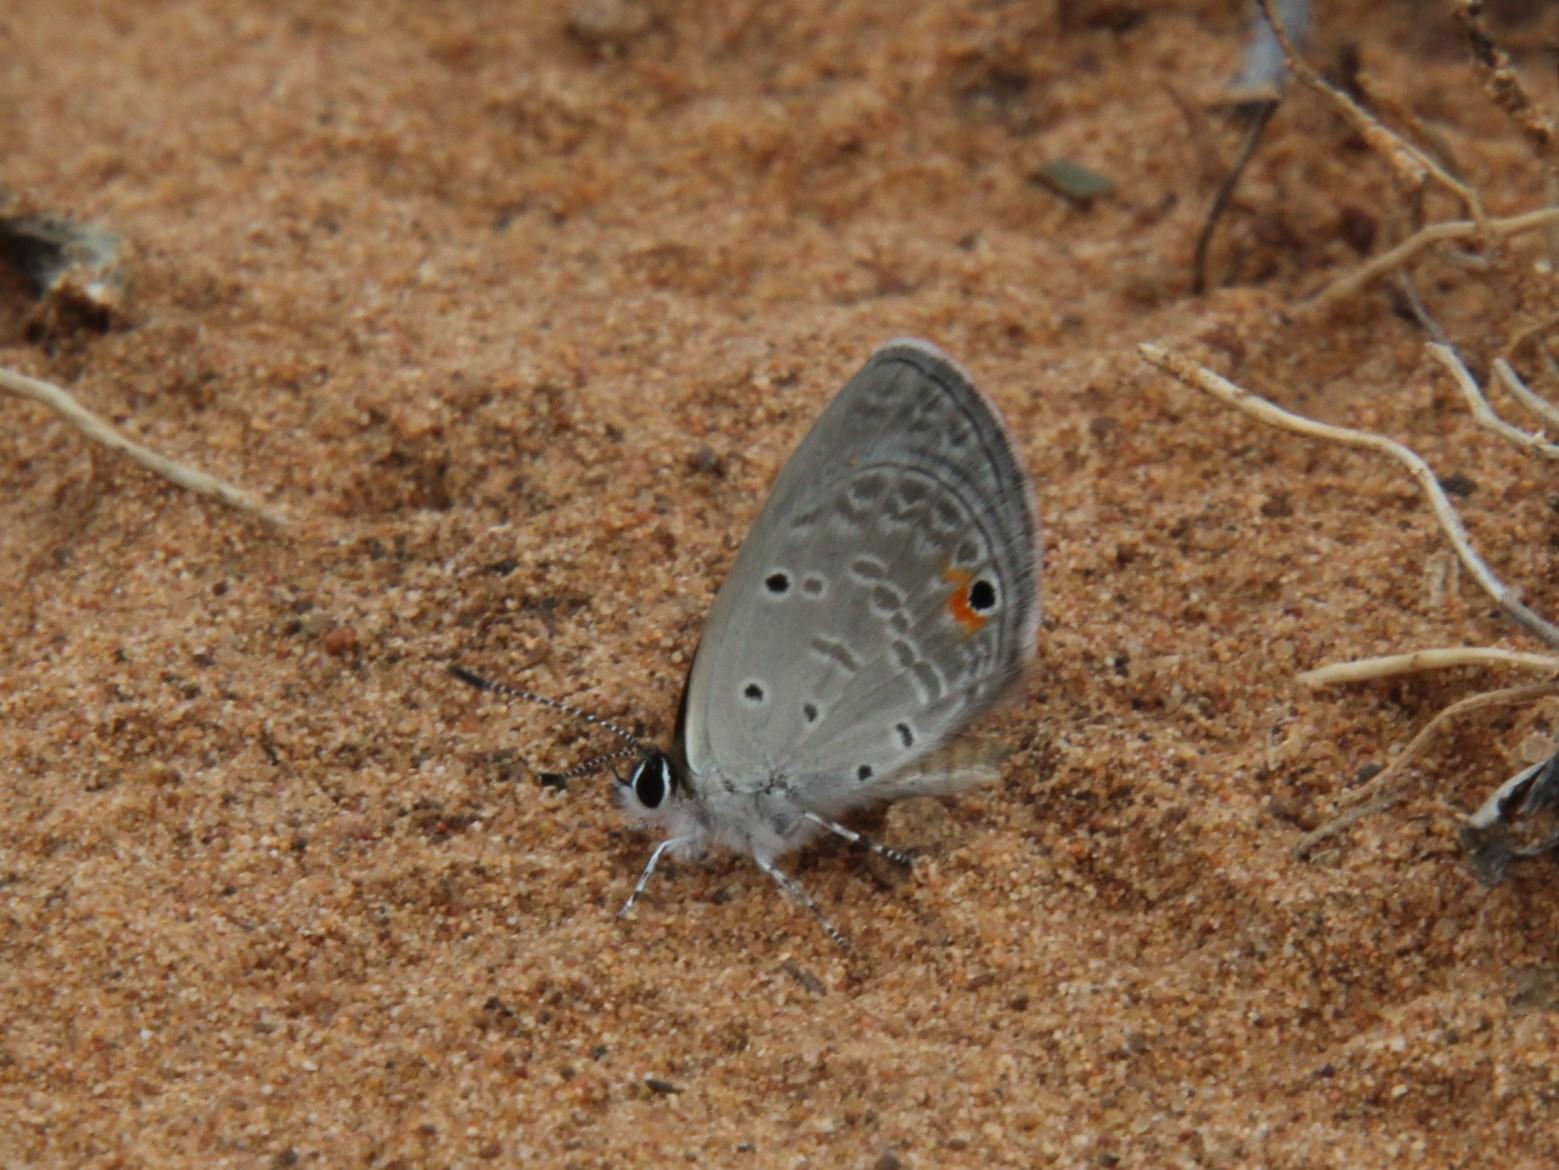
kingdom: Animalia
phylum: Arthropoda
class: Insecta
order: Lepidoptera
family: Lycaenidae
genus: Eicochrysops
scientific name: Eicochrysops messapus
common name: Cupreous blue
